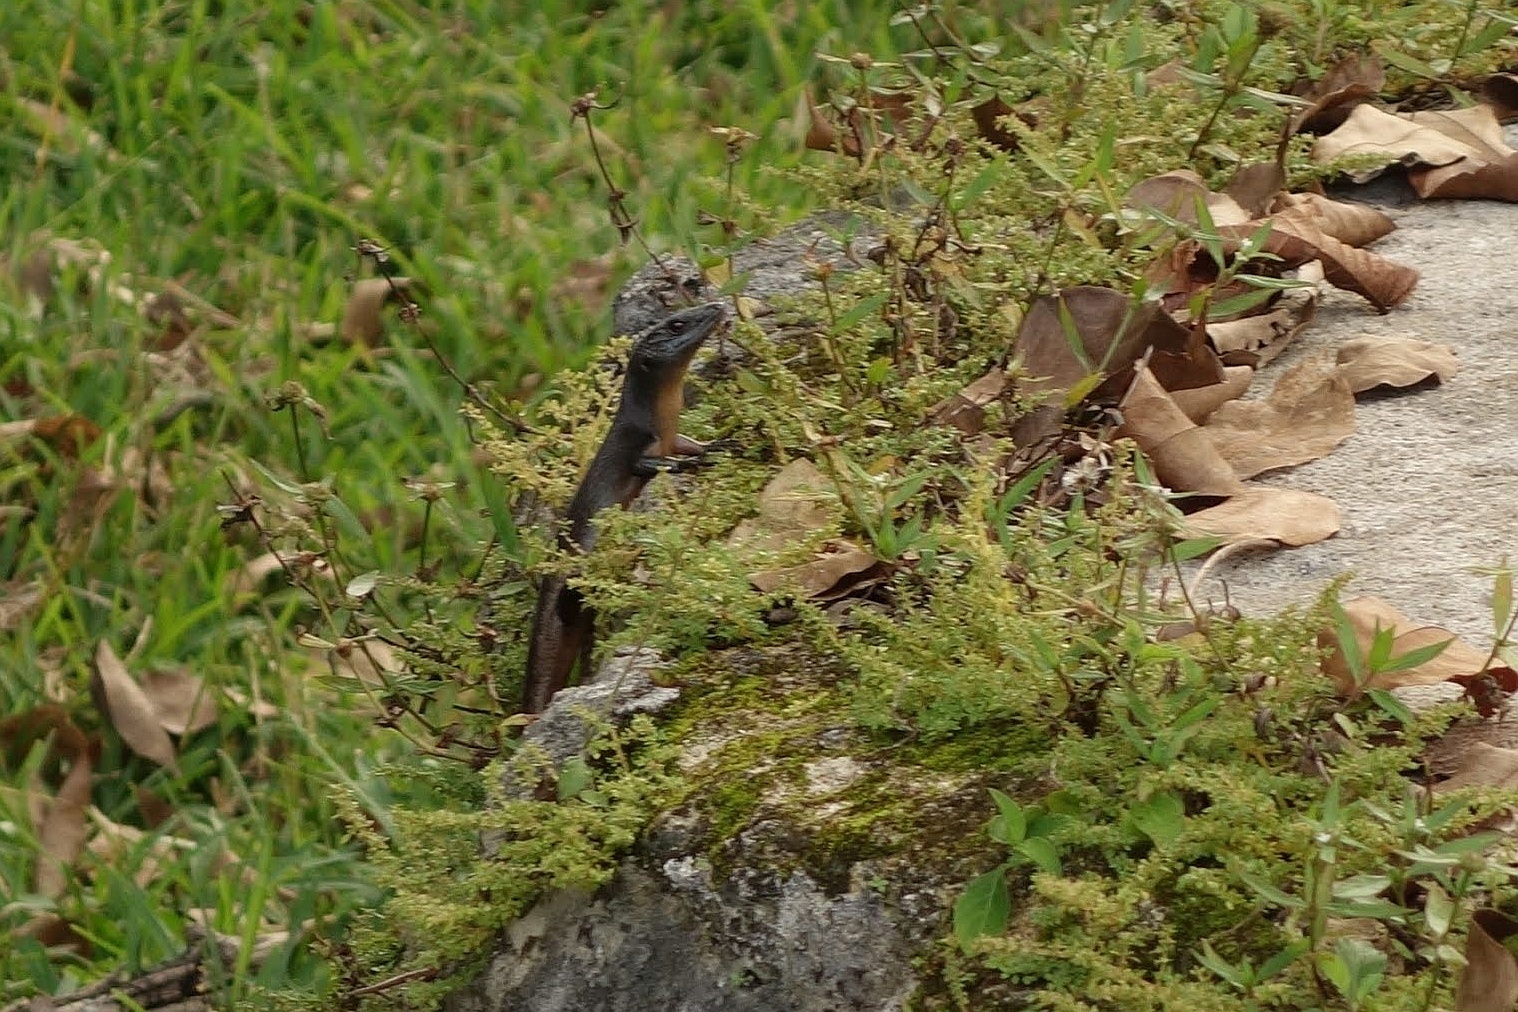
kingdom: Animalia
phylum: Chordata
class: Squamata
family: Scincidae
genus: Emoia
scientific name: Emoia nigra
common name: Black emo skink
